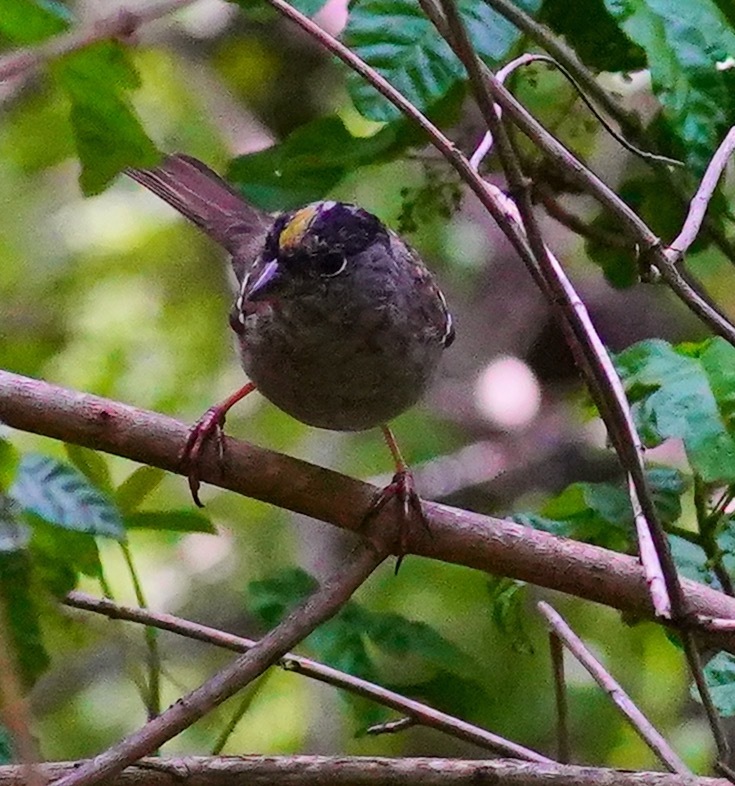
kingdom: Animalia
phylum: Chordata
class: Aves
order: Passeriformes
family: Passerellidae
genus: Zonotrichia
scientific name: Zonotrichia atricapilla
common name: Golden-crowned sparrow
